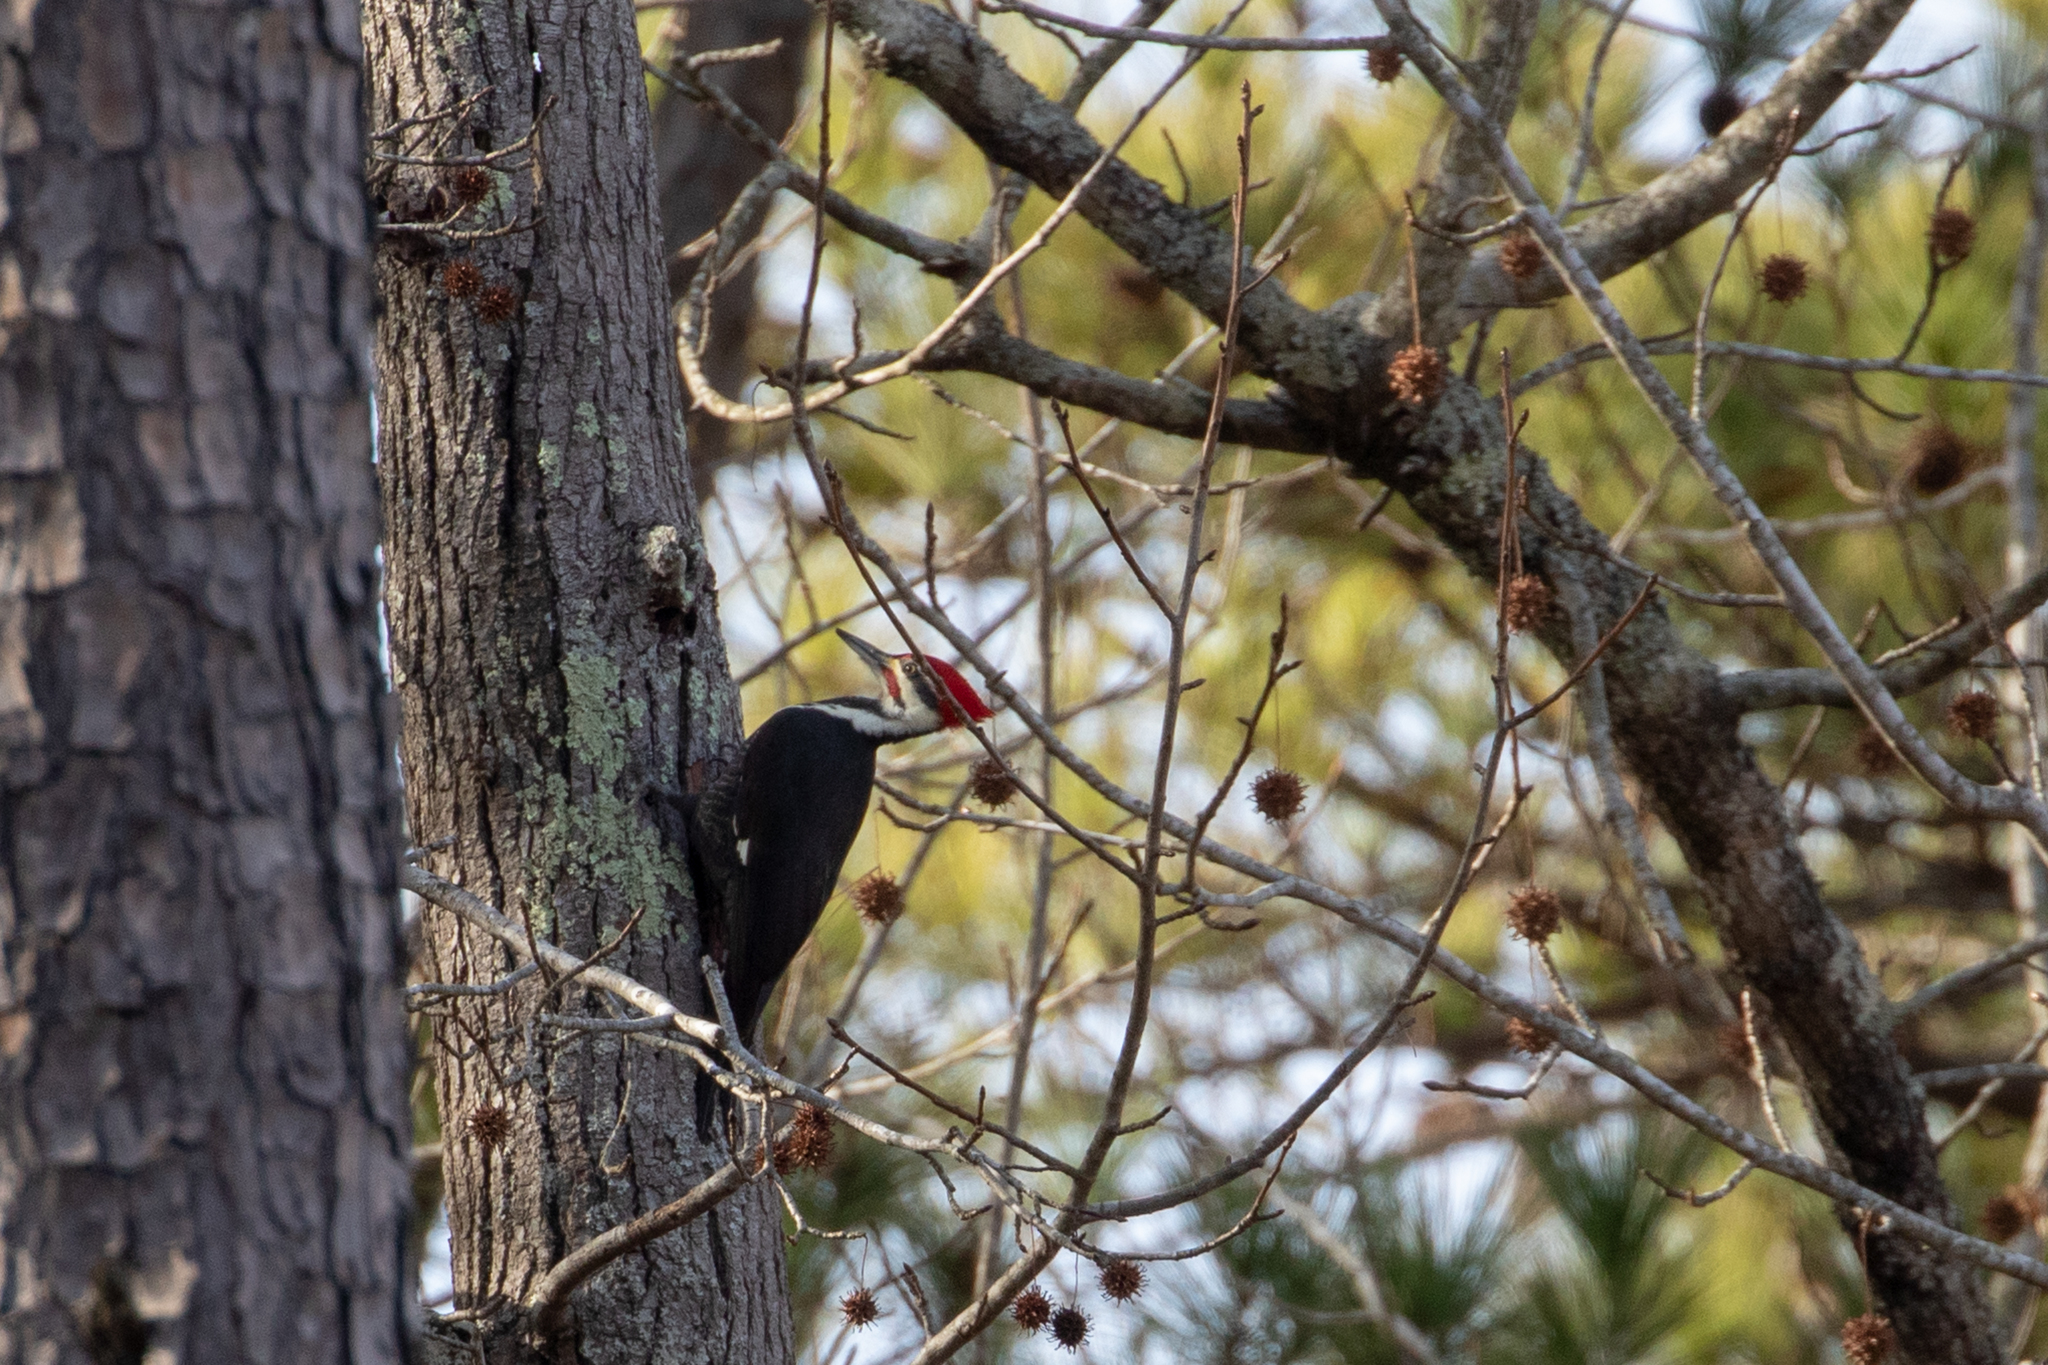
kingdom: Animalia
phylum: Chordata
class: Aves
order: Piciformes
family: Picidae
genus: Dryocopus
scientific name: Dryocopus pileatus
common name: Pileated woodpecker
